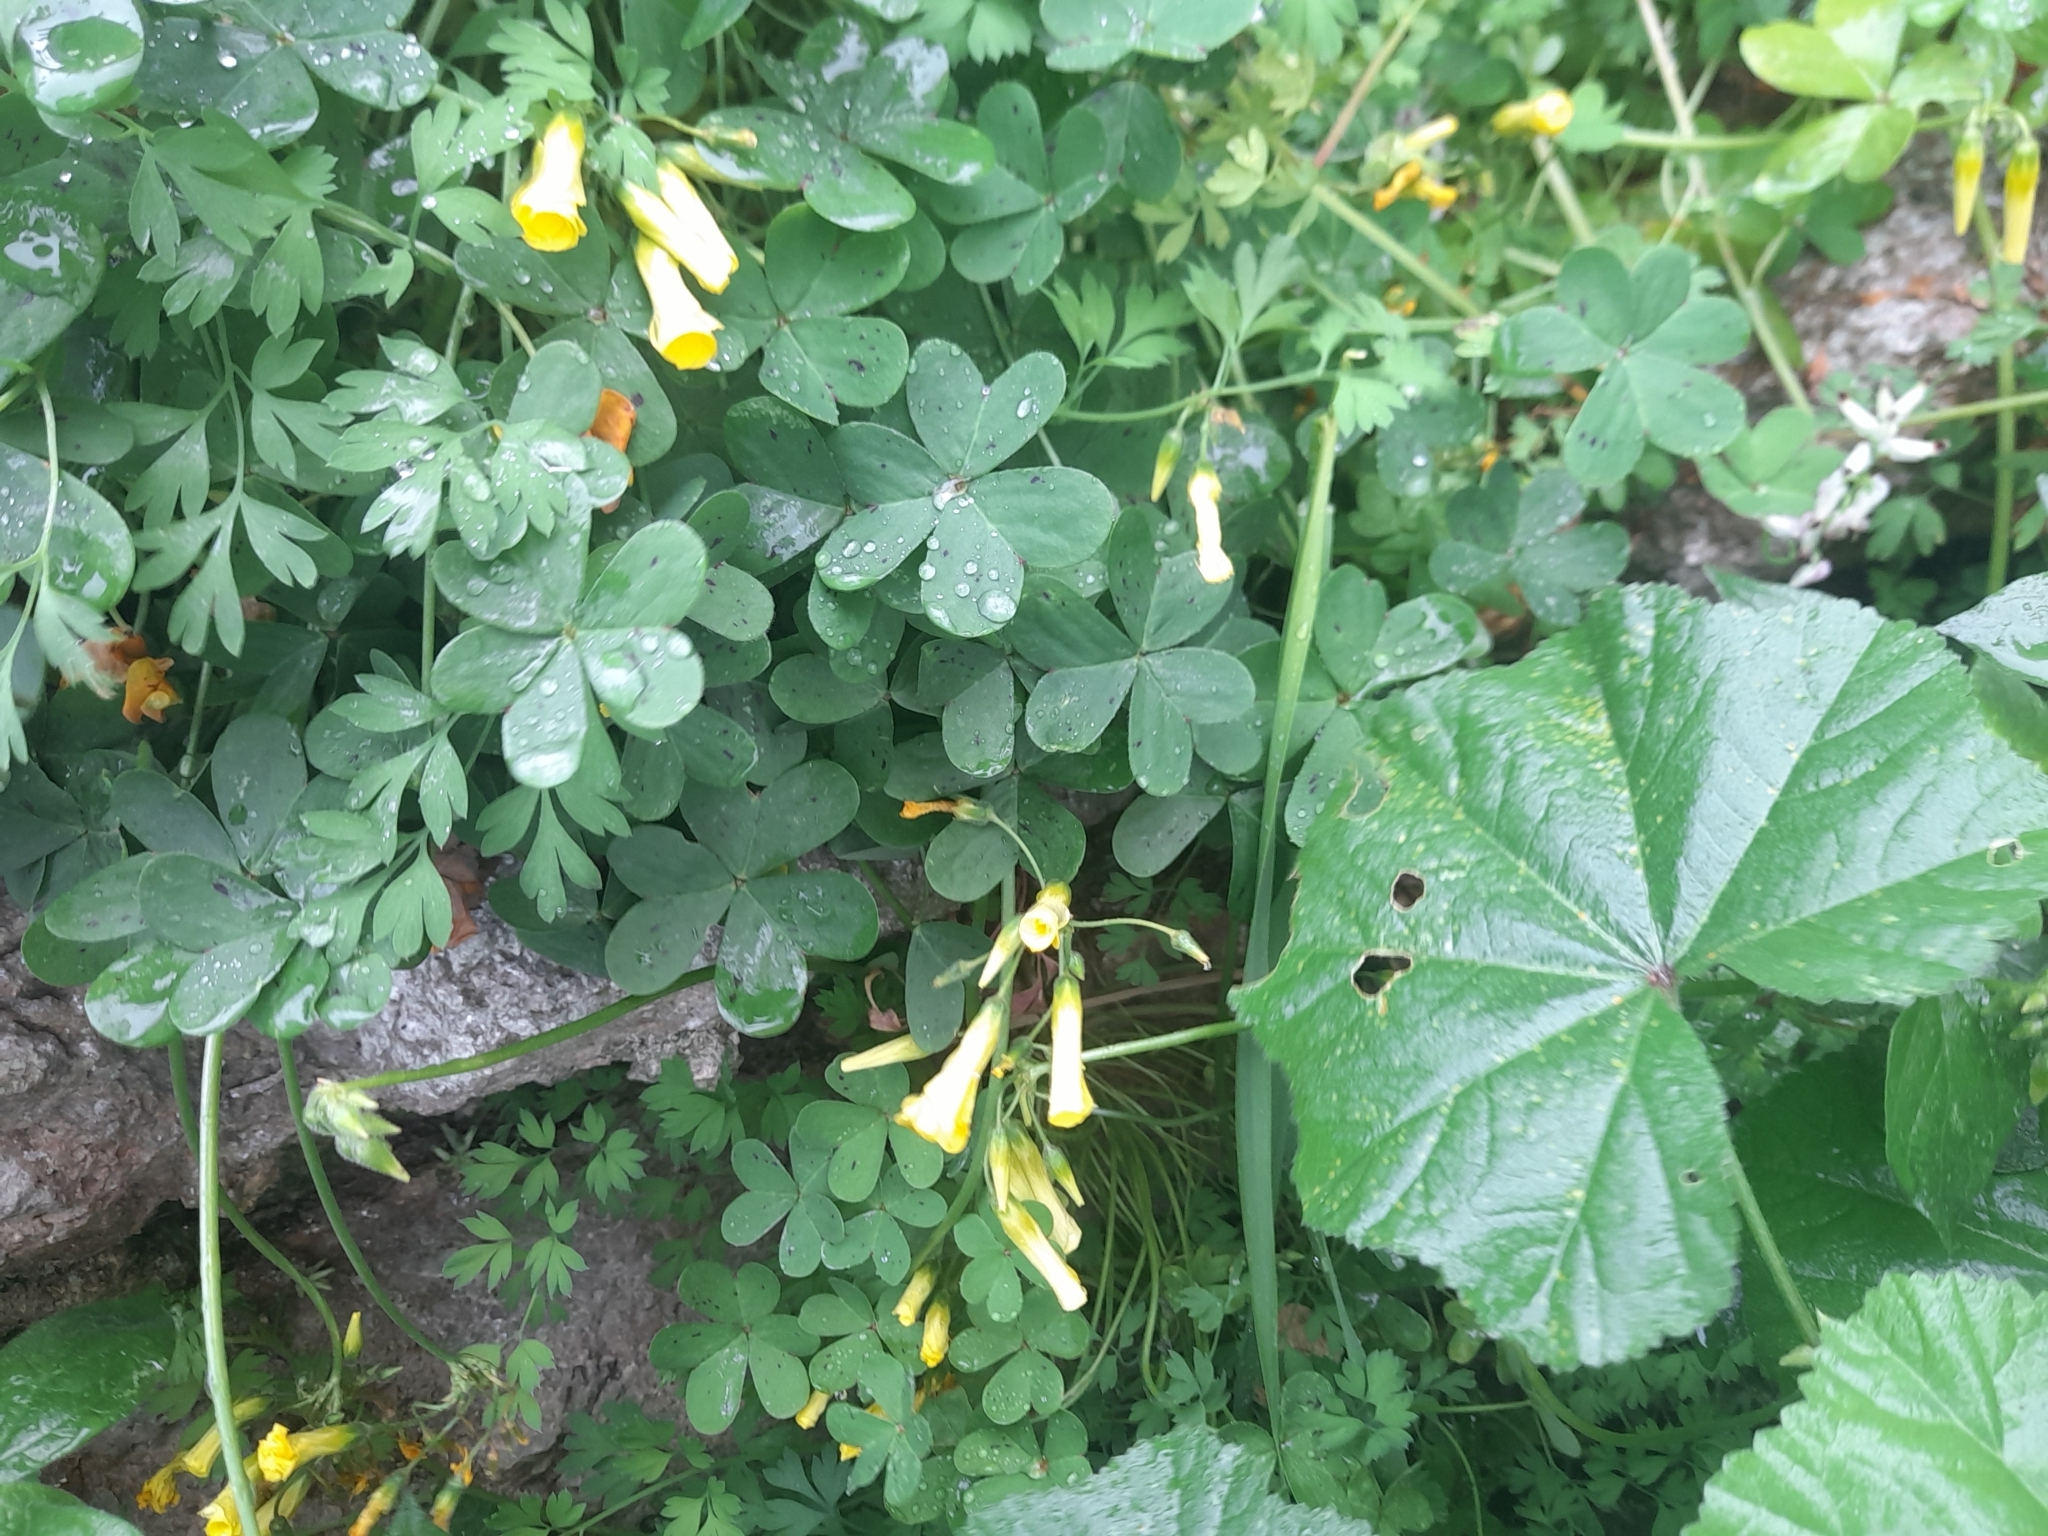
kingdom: Plantae
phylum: Tracheophyta
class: Magnoliopsida
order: Oxalidales
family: Oxalidaceae
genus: Oxalis
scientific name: Oxalis pes-caprae
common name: Bermuda-buttercup
